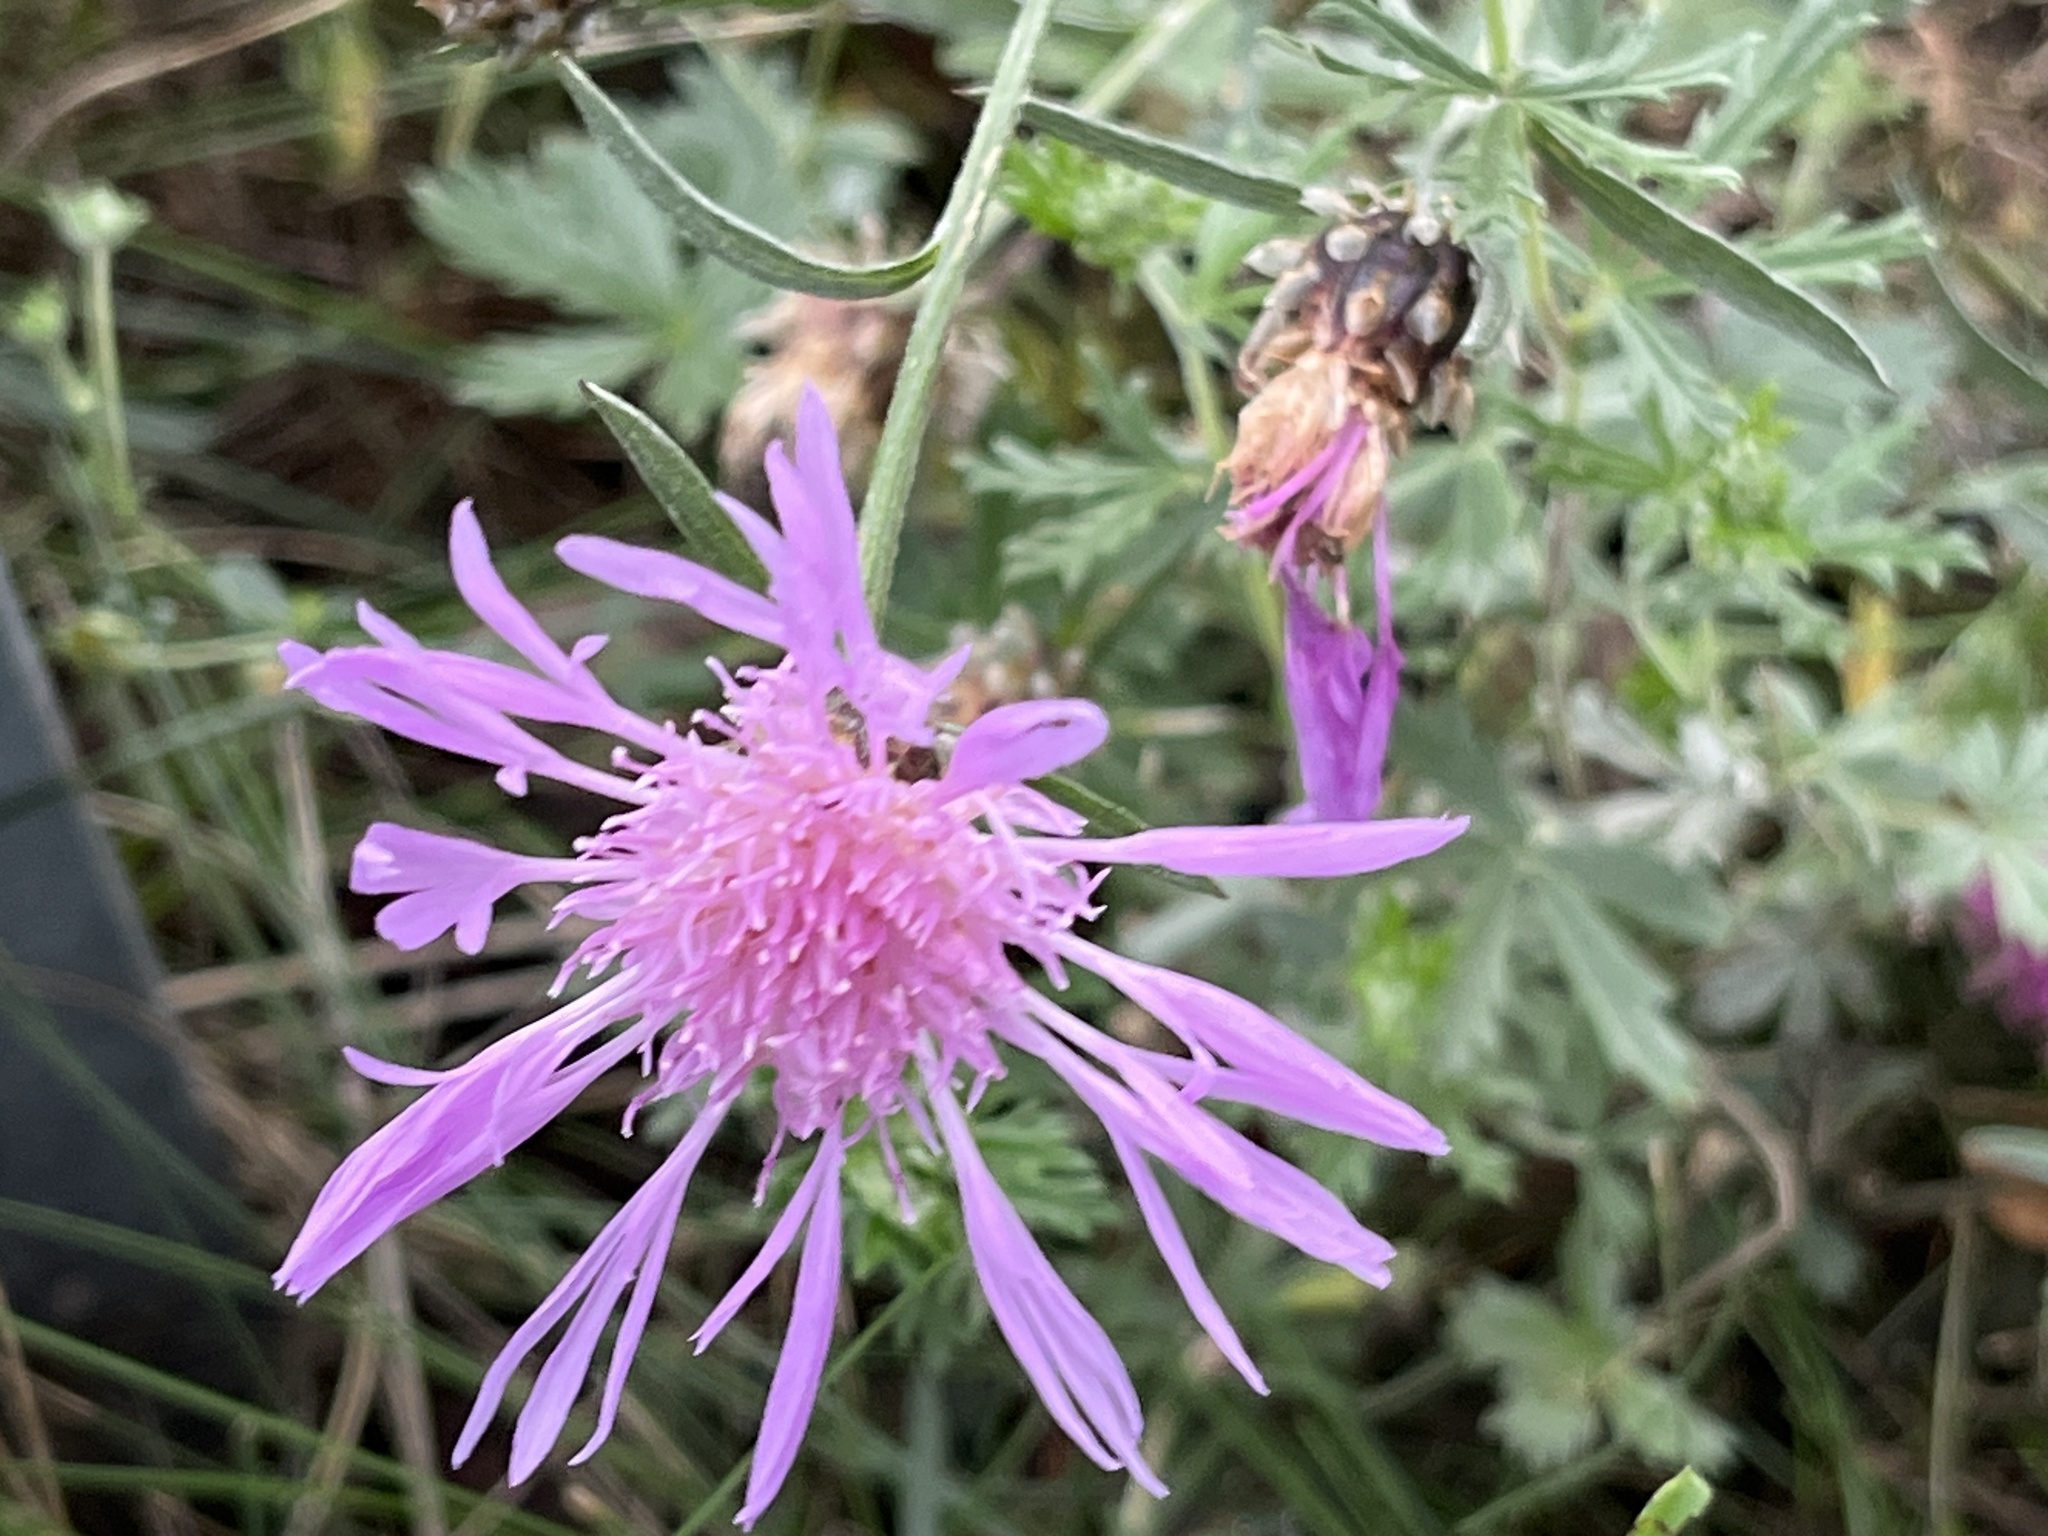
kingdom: Plantae
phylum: Tracheophyta
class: Magnoliopsida
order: Asterales
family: Asteraceae
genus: Centaurea
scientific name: Centaurea jacea
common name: Brown knapweed
